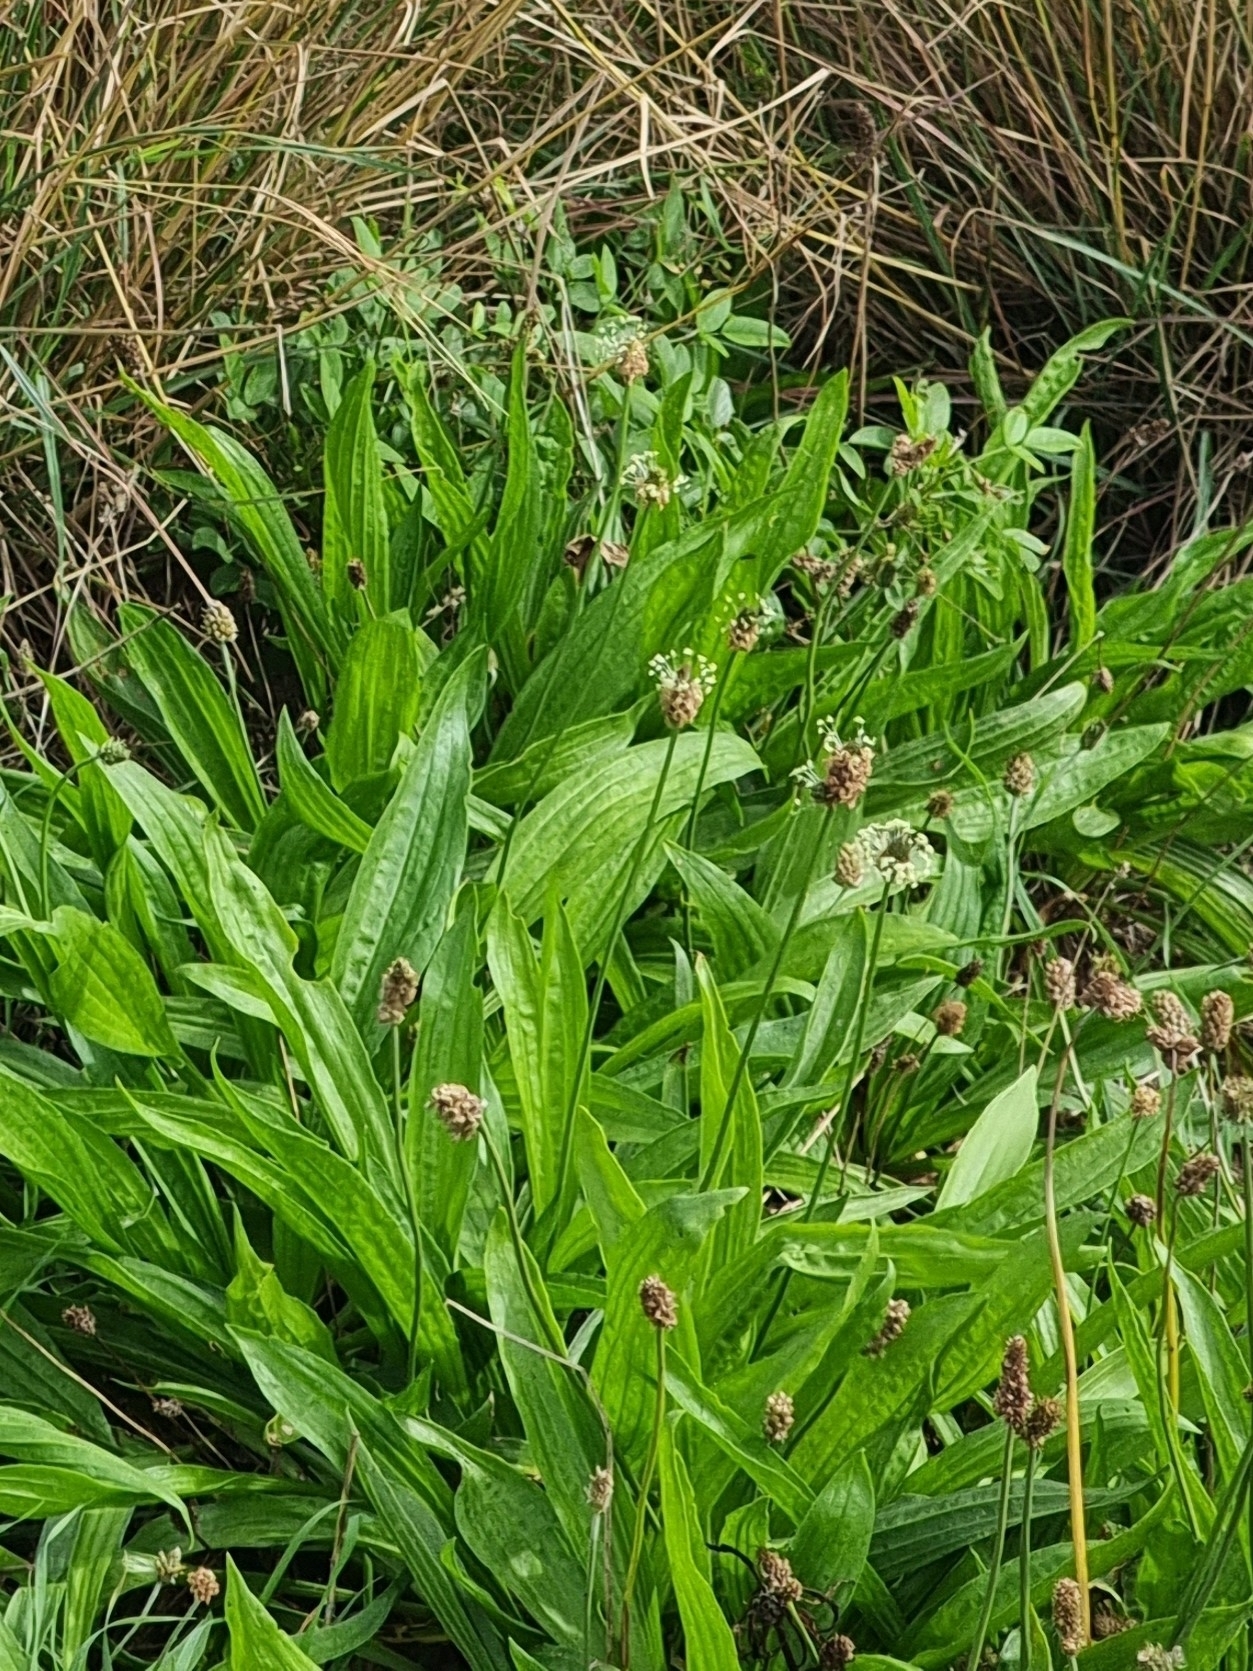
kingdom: Plantae
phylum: Tracheophyta
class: Magnoliopsida
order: Lamiales
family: Plantaginaceae
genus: Plantago
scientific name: Plantago lanceolata
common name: Ribwort plantain
